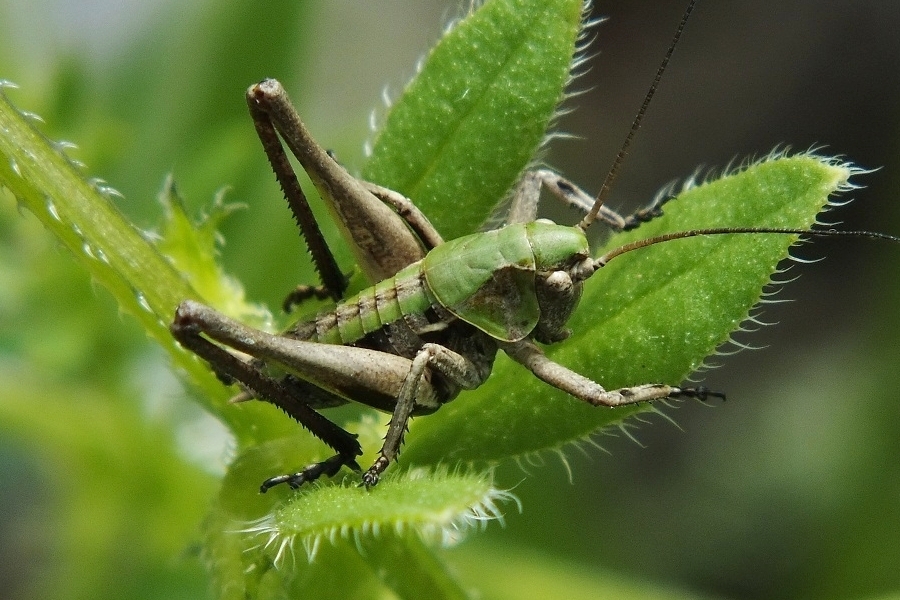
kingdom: Animalia
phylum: Arthropoda
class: Insecta
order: Orthoptera
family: Tettigoniidae
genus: Decticus
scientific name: Decticus verrucivorus
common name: Wart-biter
